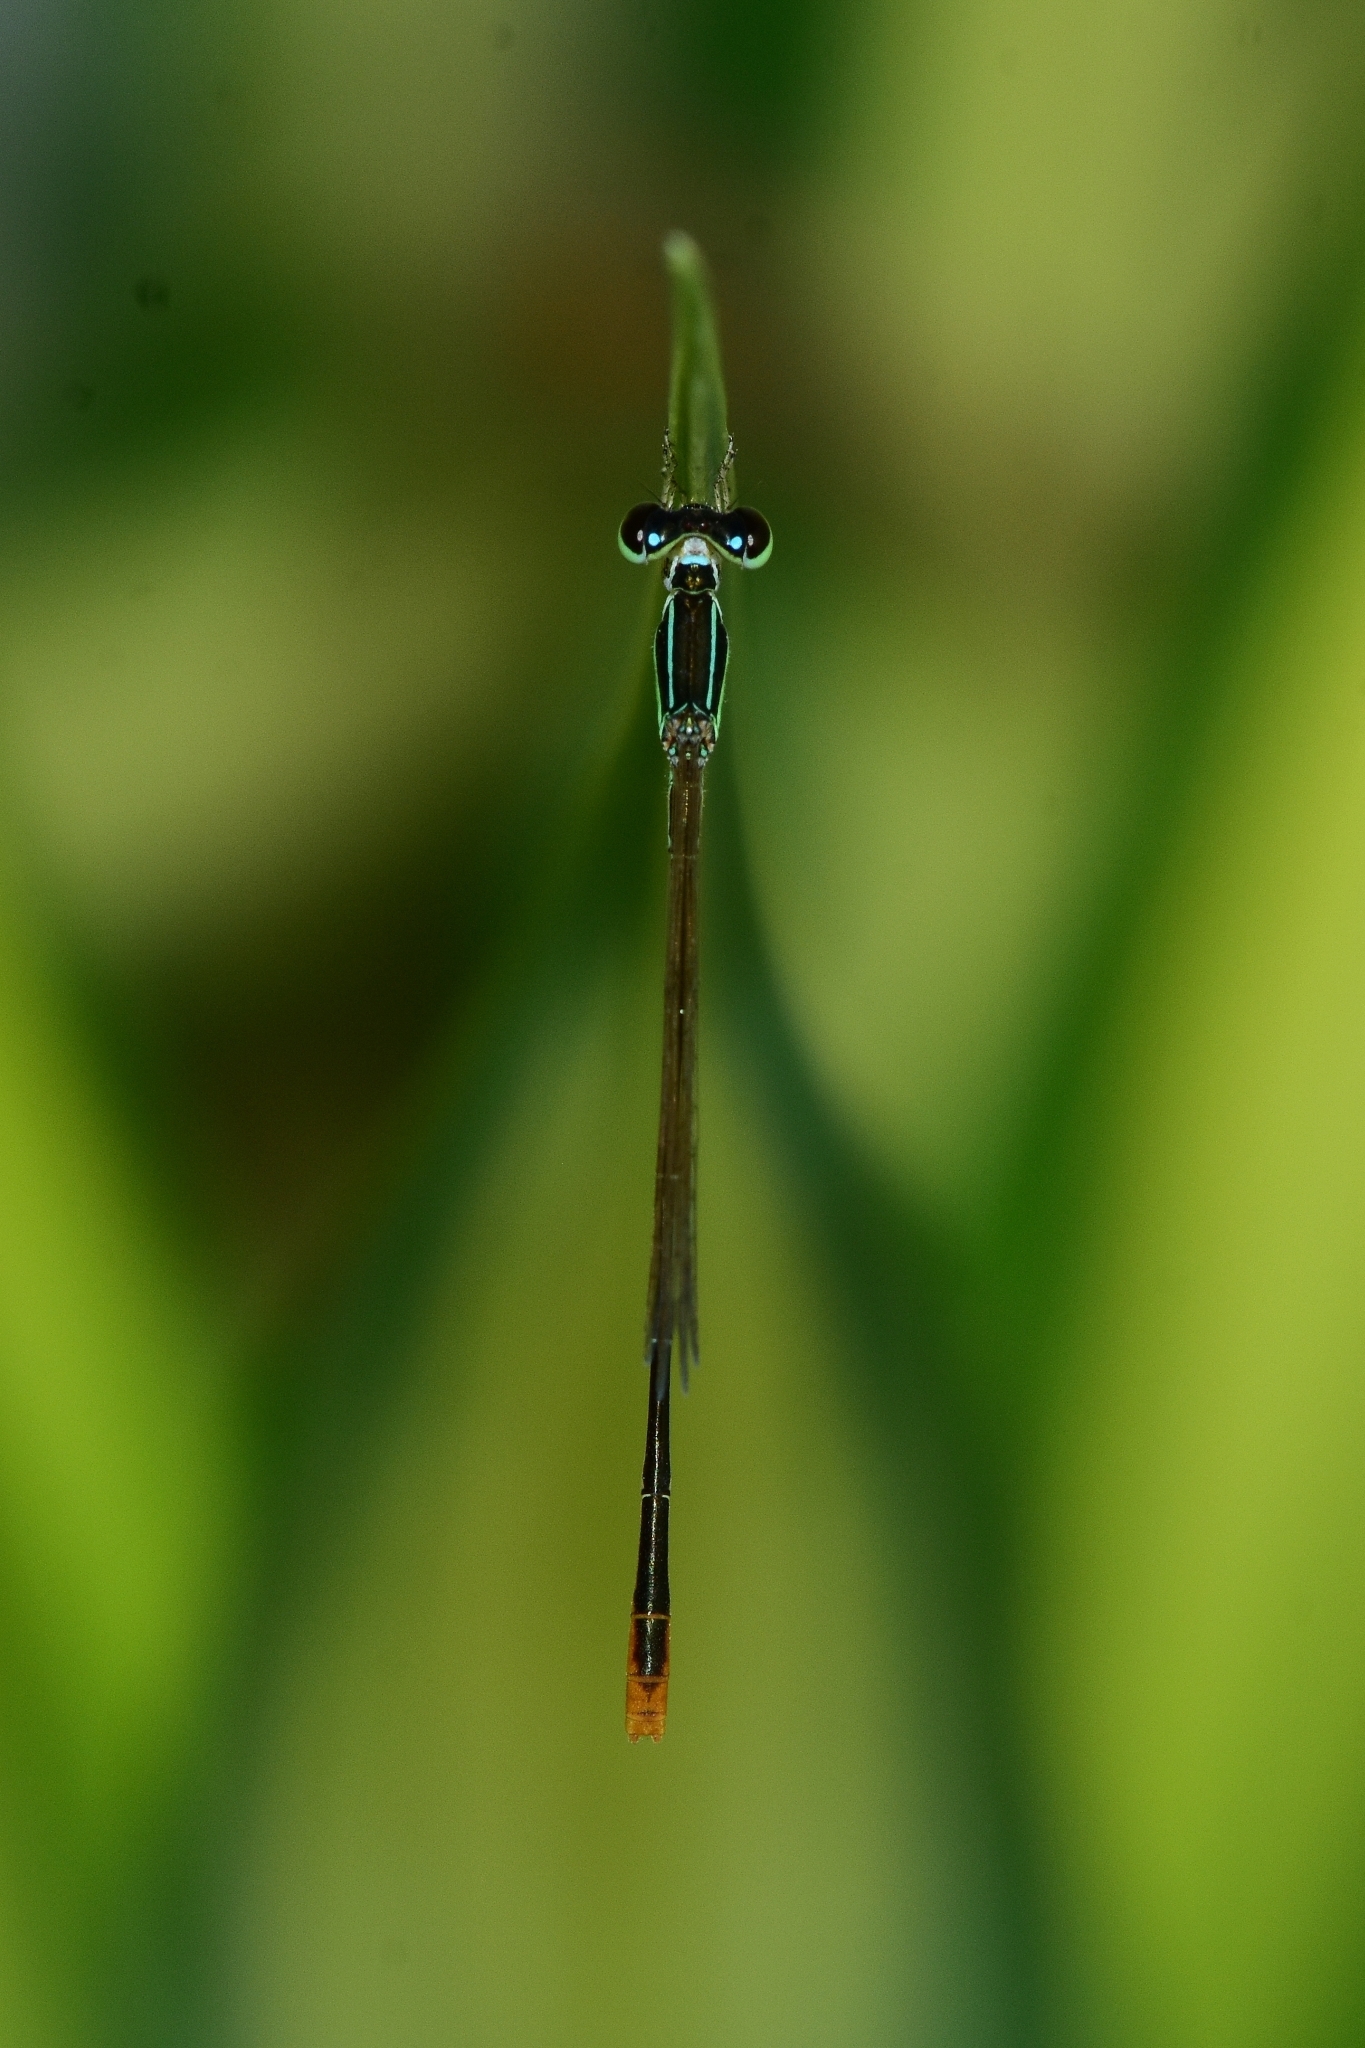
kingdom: Animalia
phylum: Arthropoda
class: Insecta
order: Odonata
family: Coenagrionidae
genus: Agriocnemis
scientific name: Agriocnemis pygmaea
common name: Pygmy wisp
